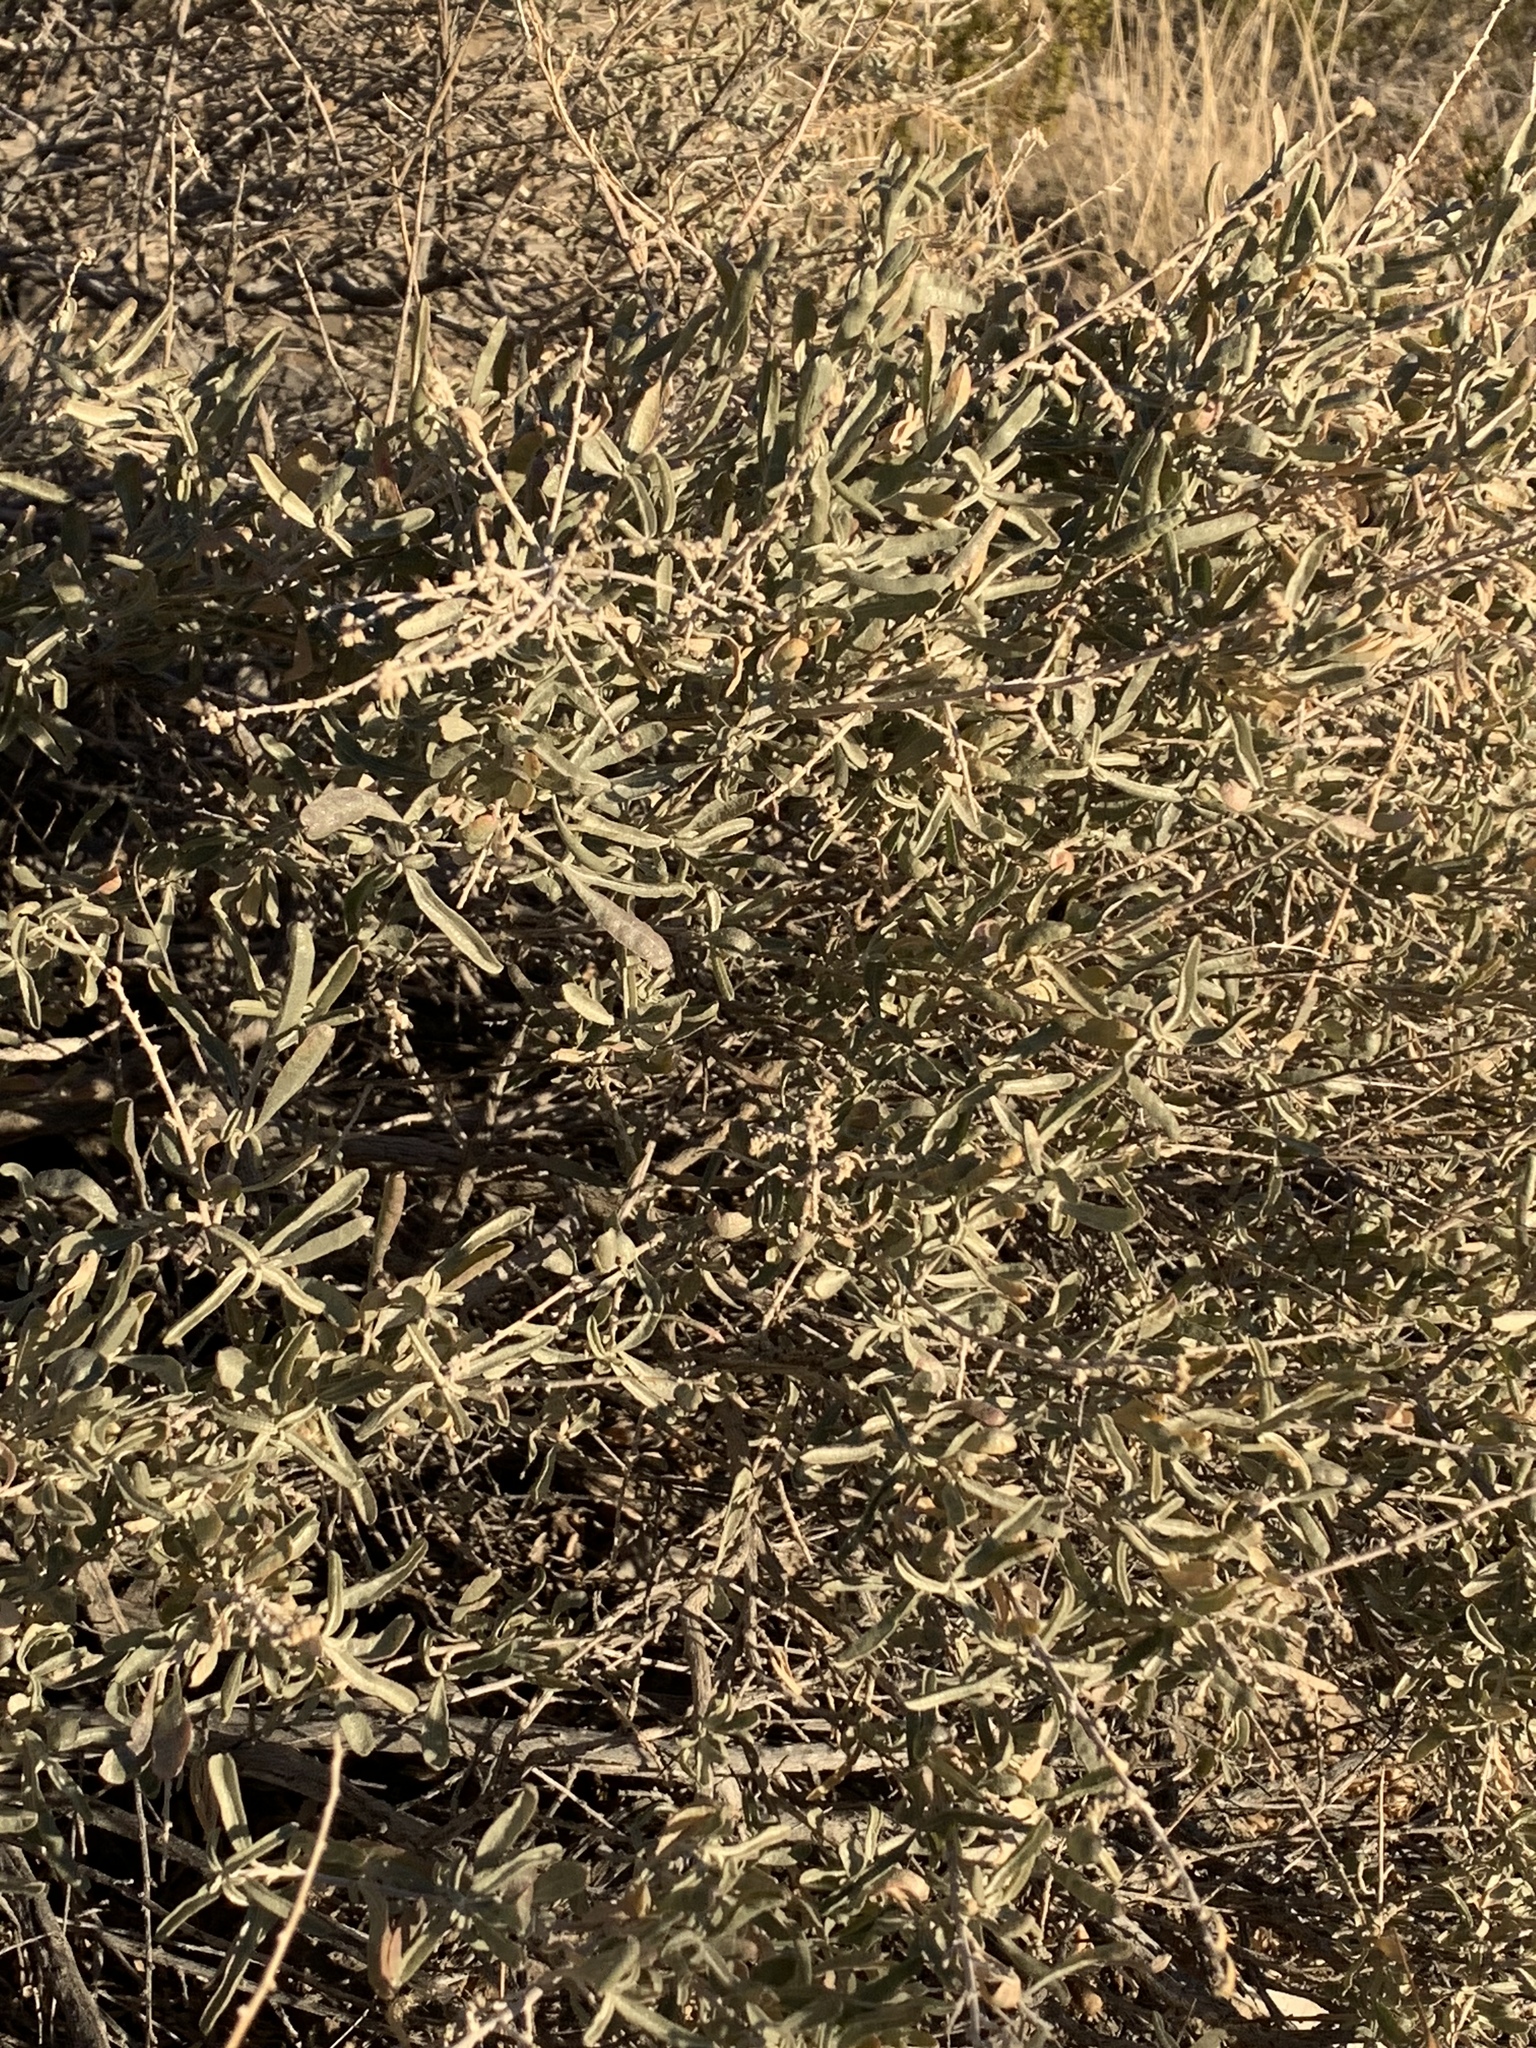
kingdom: Plantae
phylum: Tracheophyta
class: Magnoliopsida
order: Caryophyllales
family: Amaranthaceae
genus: Atriplex
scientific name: Atriplex canescens
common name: Four-wing saltbush
